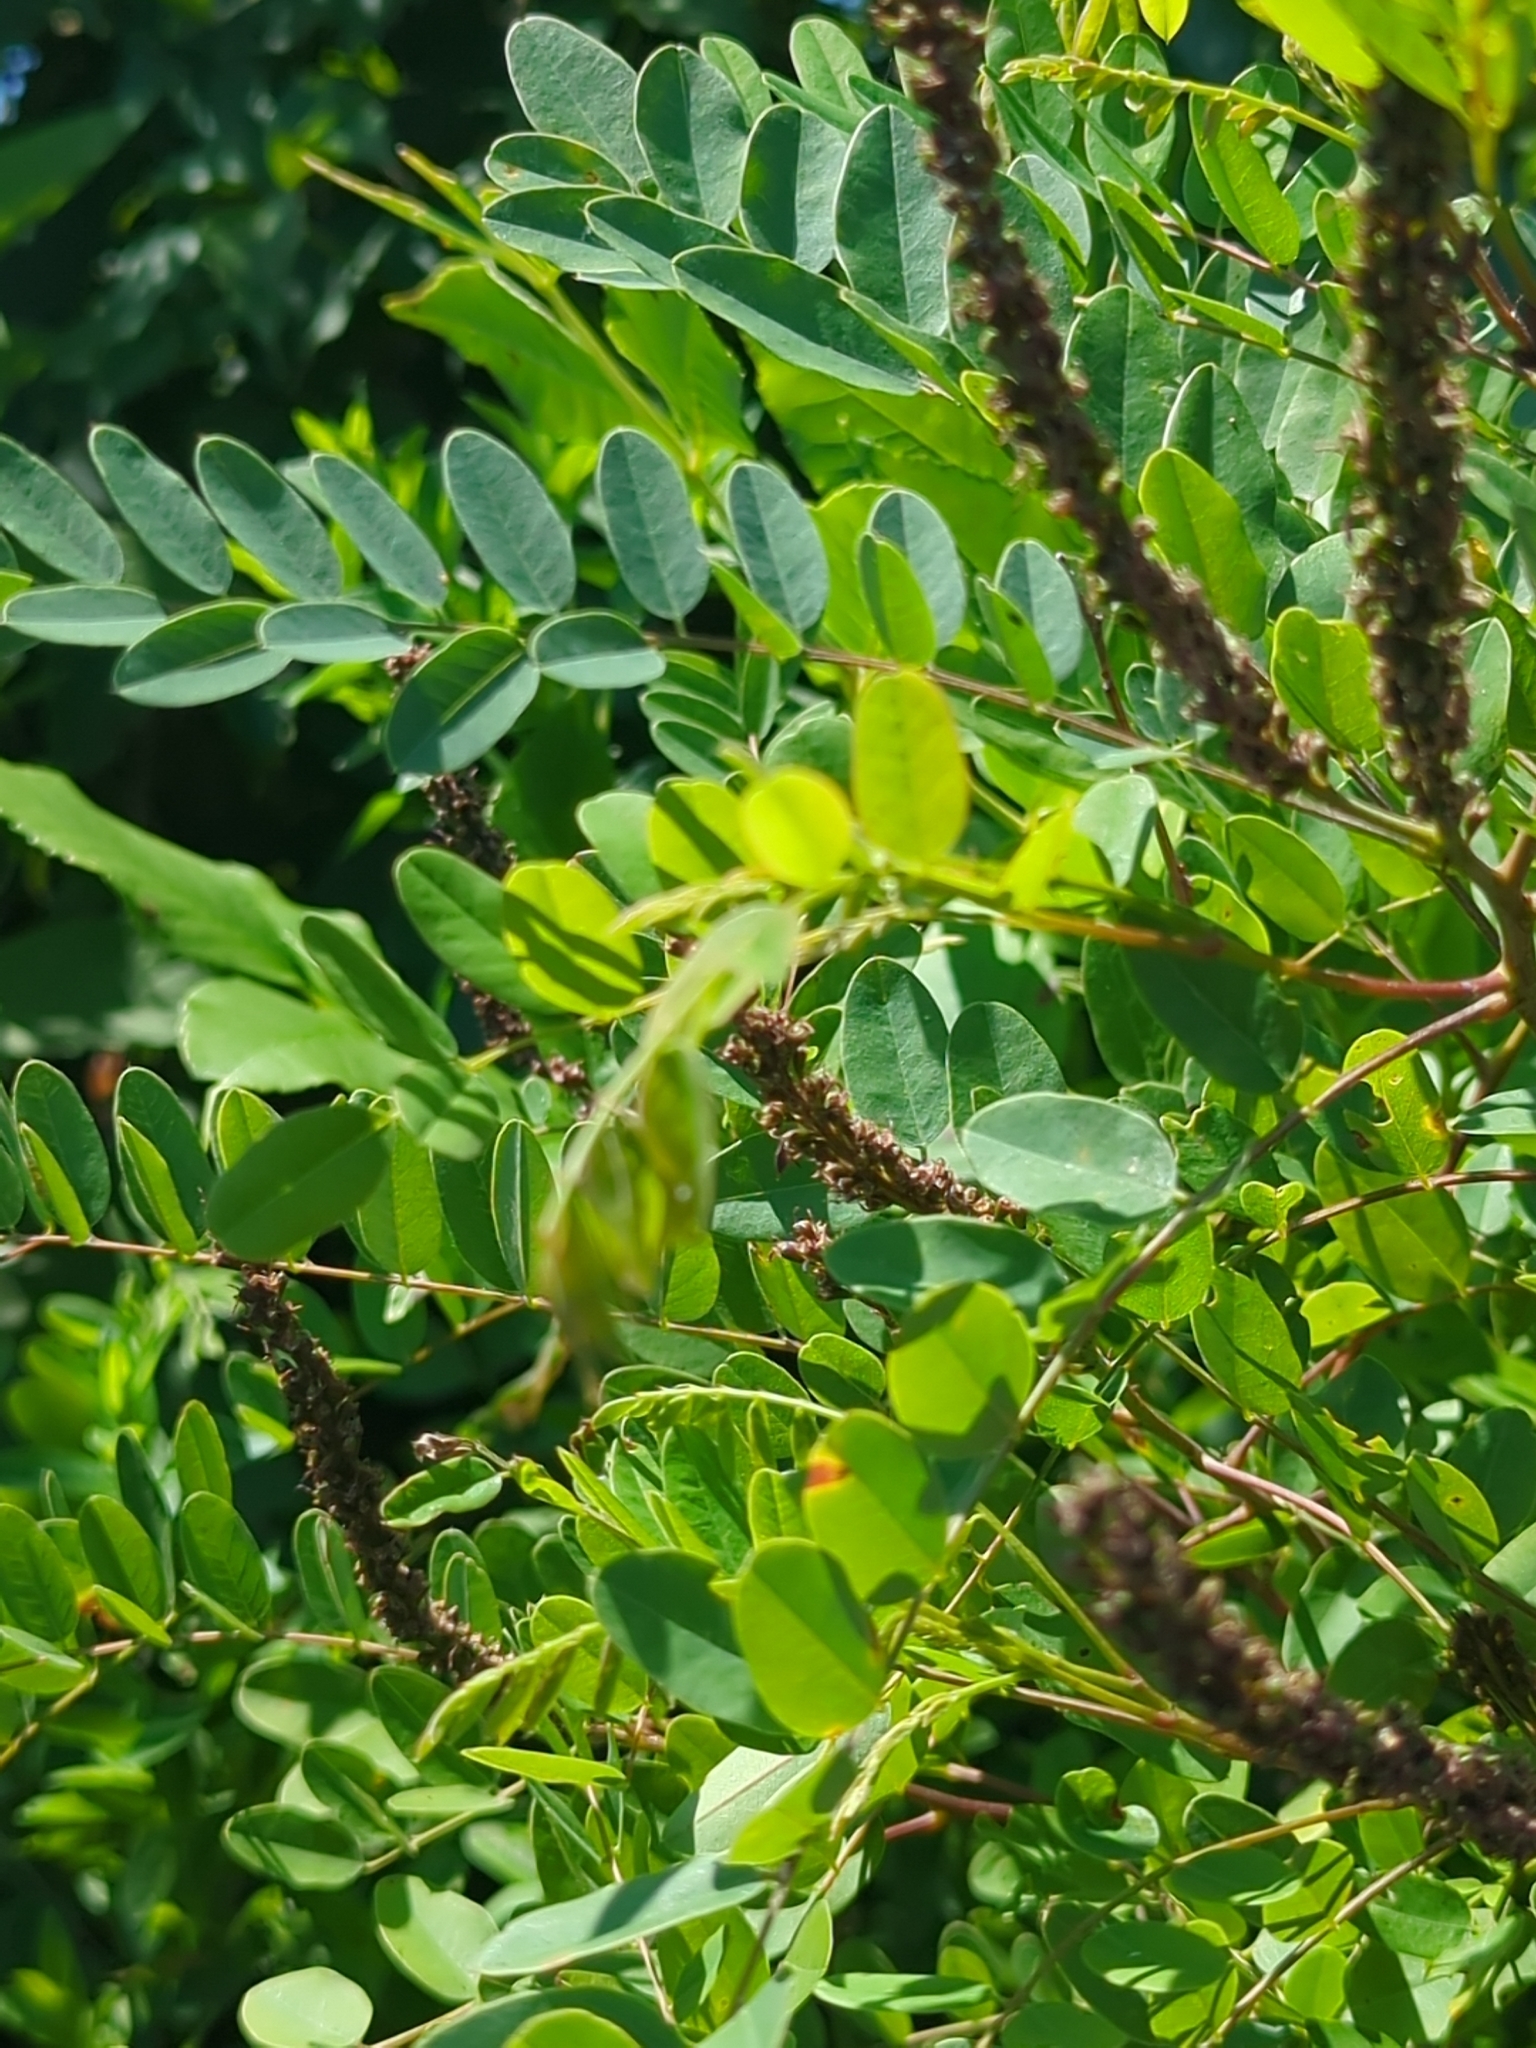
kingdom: Plantae
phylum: Tracheophyta
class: Magnoliopsida
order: Fabales
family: Fabaceae
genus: Amorpha
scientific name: Amorpha fruticosa
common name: False indigo
